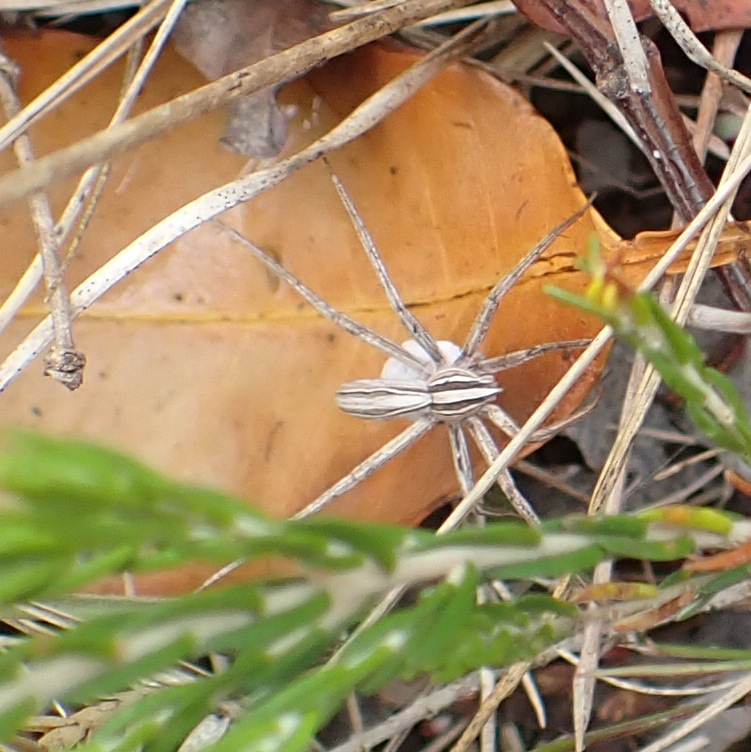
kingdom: Animalia
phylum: Arthropoda
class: Arachnida
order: Araneae
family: Pisauridae
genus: Chiasmopes
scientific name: Chiasmopes namaquensis
